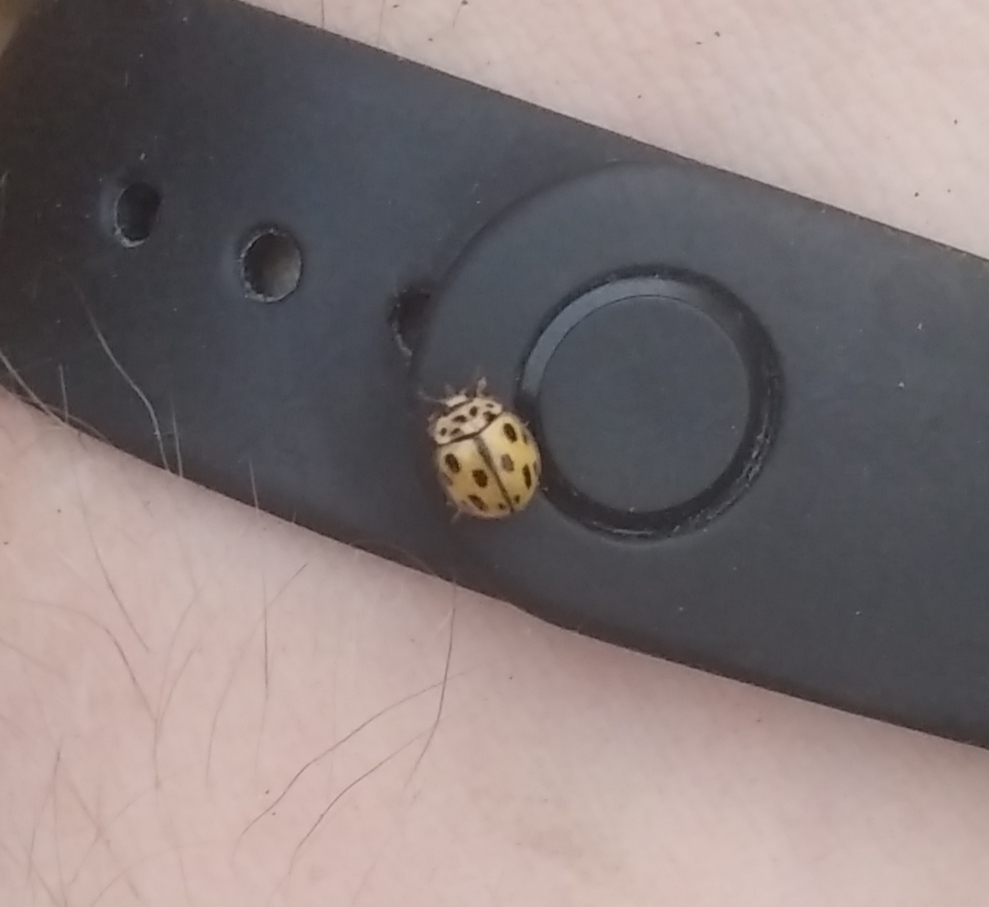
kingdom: Animalia
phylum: Arthropoda
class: Insecta
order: Coleoptera
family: Coccinellidae
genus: Propylaea
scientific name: Propylaea quatuordecimpunctata
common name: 14-spotted ladybird beetle
